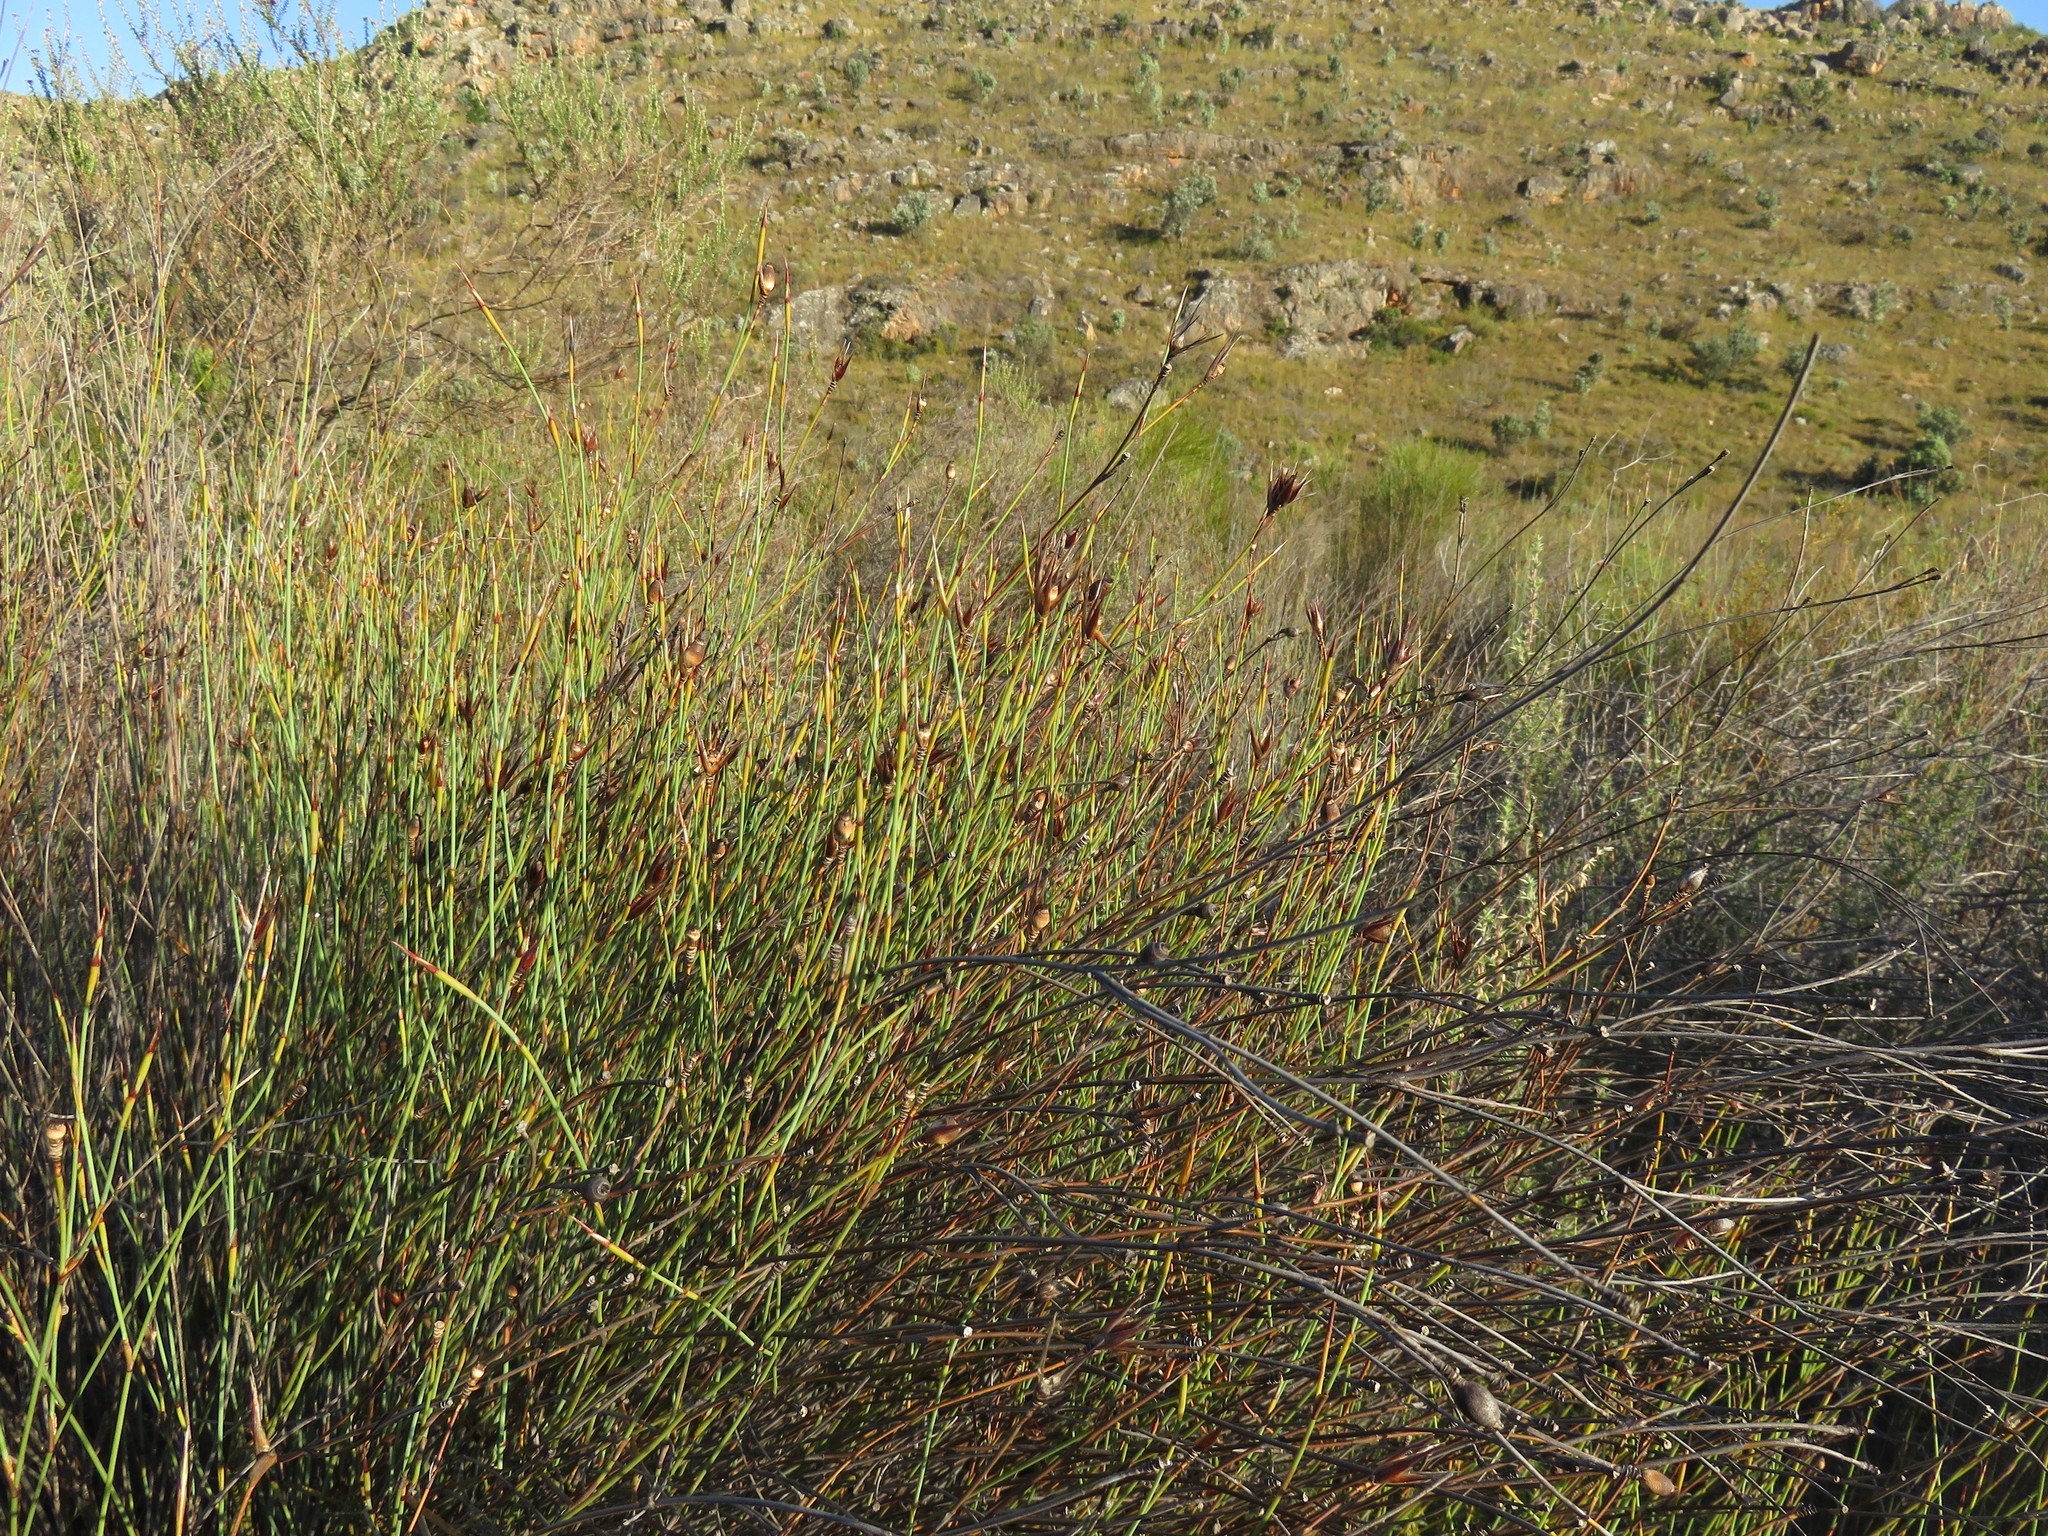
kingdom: Plantae
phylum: Tracheophyta
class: Liliopsida
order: Poales
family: Restionaceae
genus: Willdenowia
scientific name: Willdenowia incurvata
